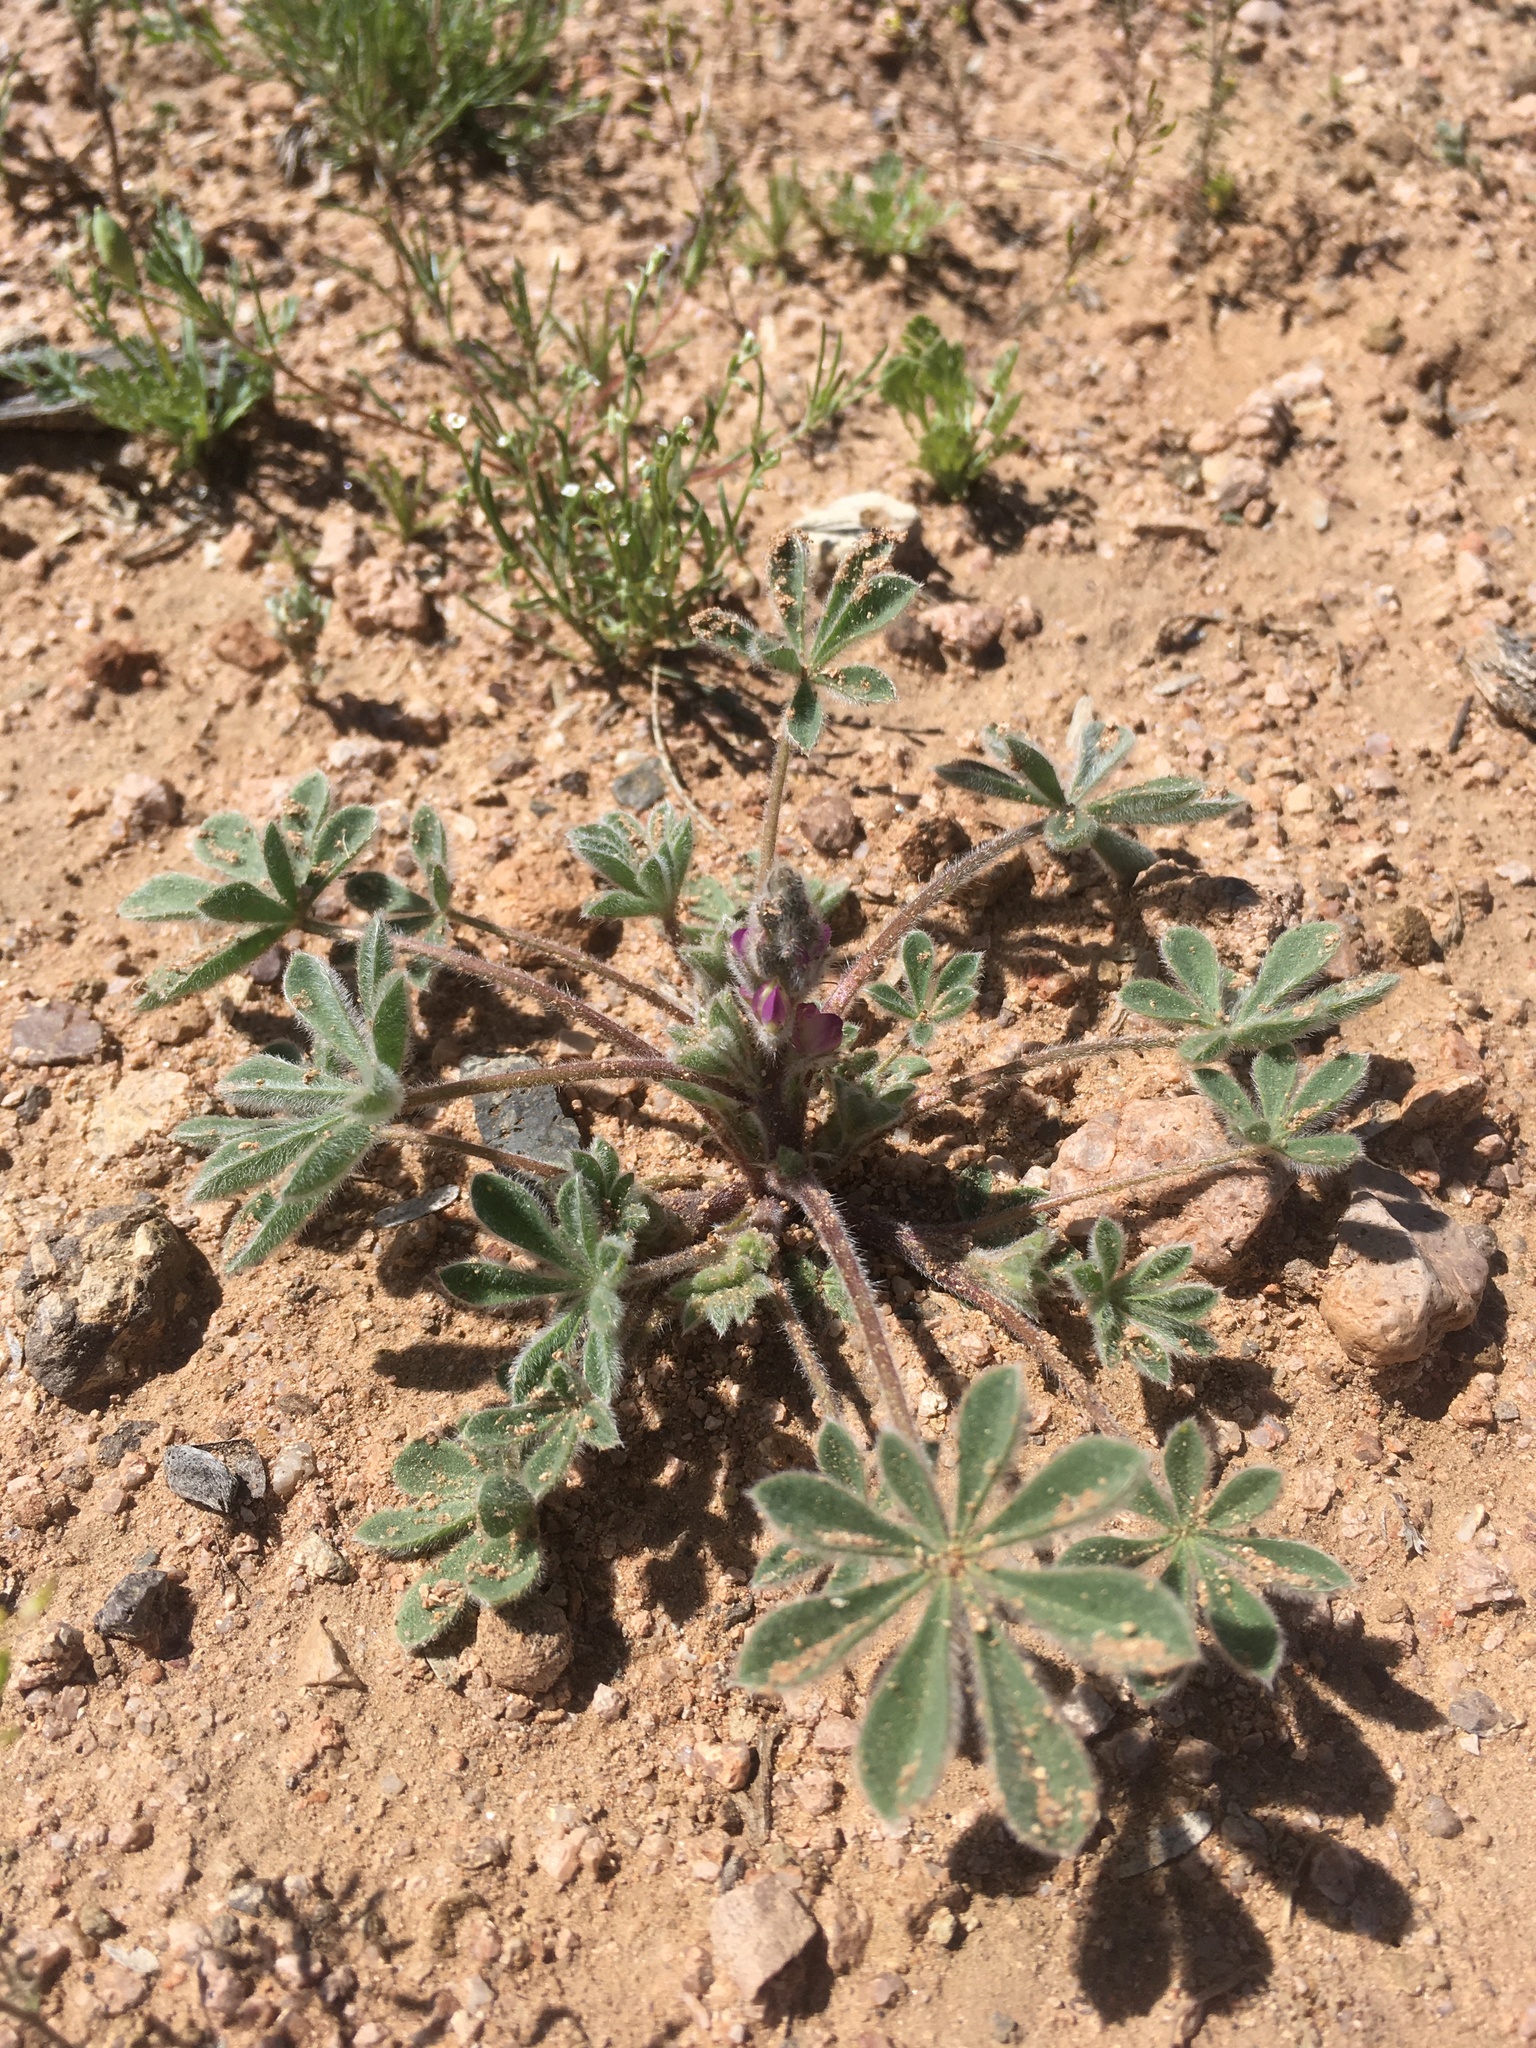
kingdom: Plantae
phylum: Tracheophyta
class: Magnoliopsida
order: Fabales
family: Fabaceae
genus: Lupinus
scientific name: Lupinus concinnus
